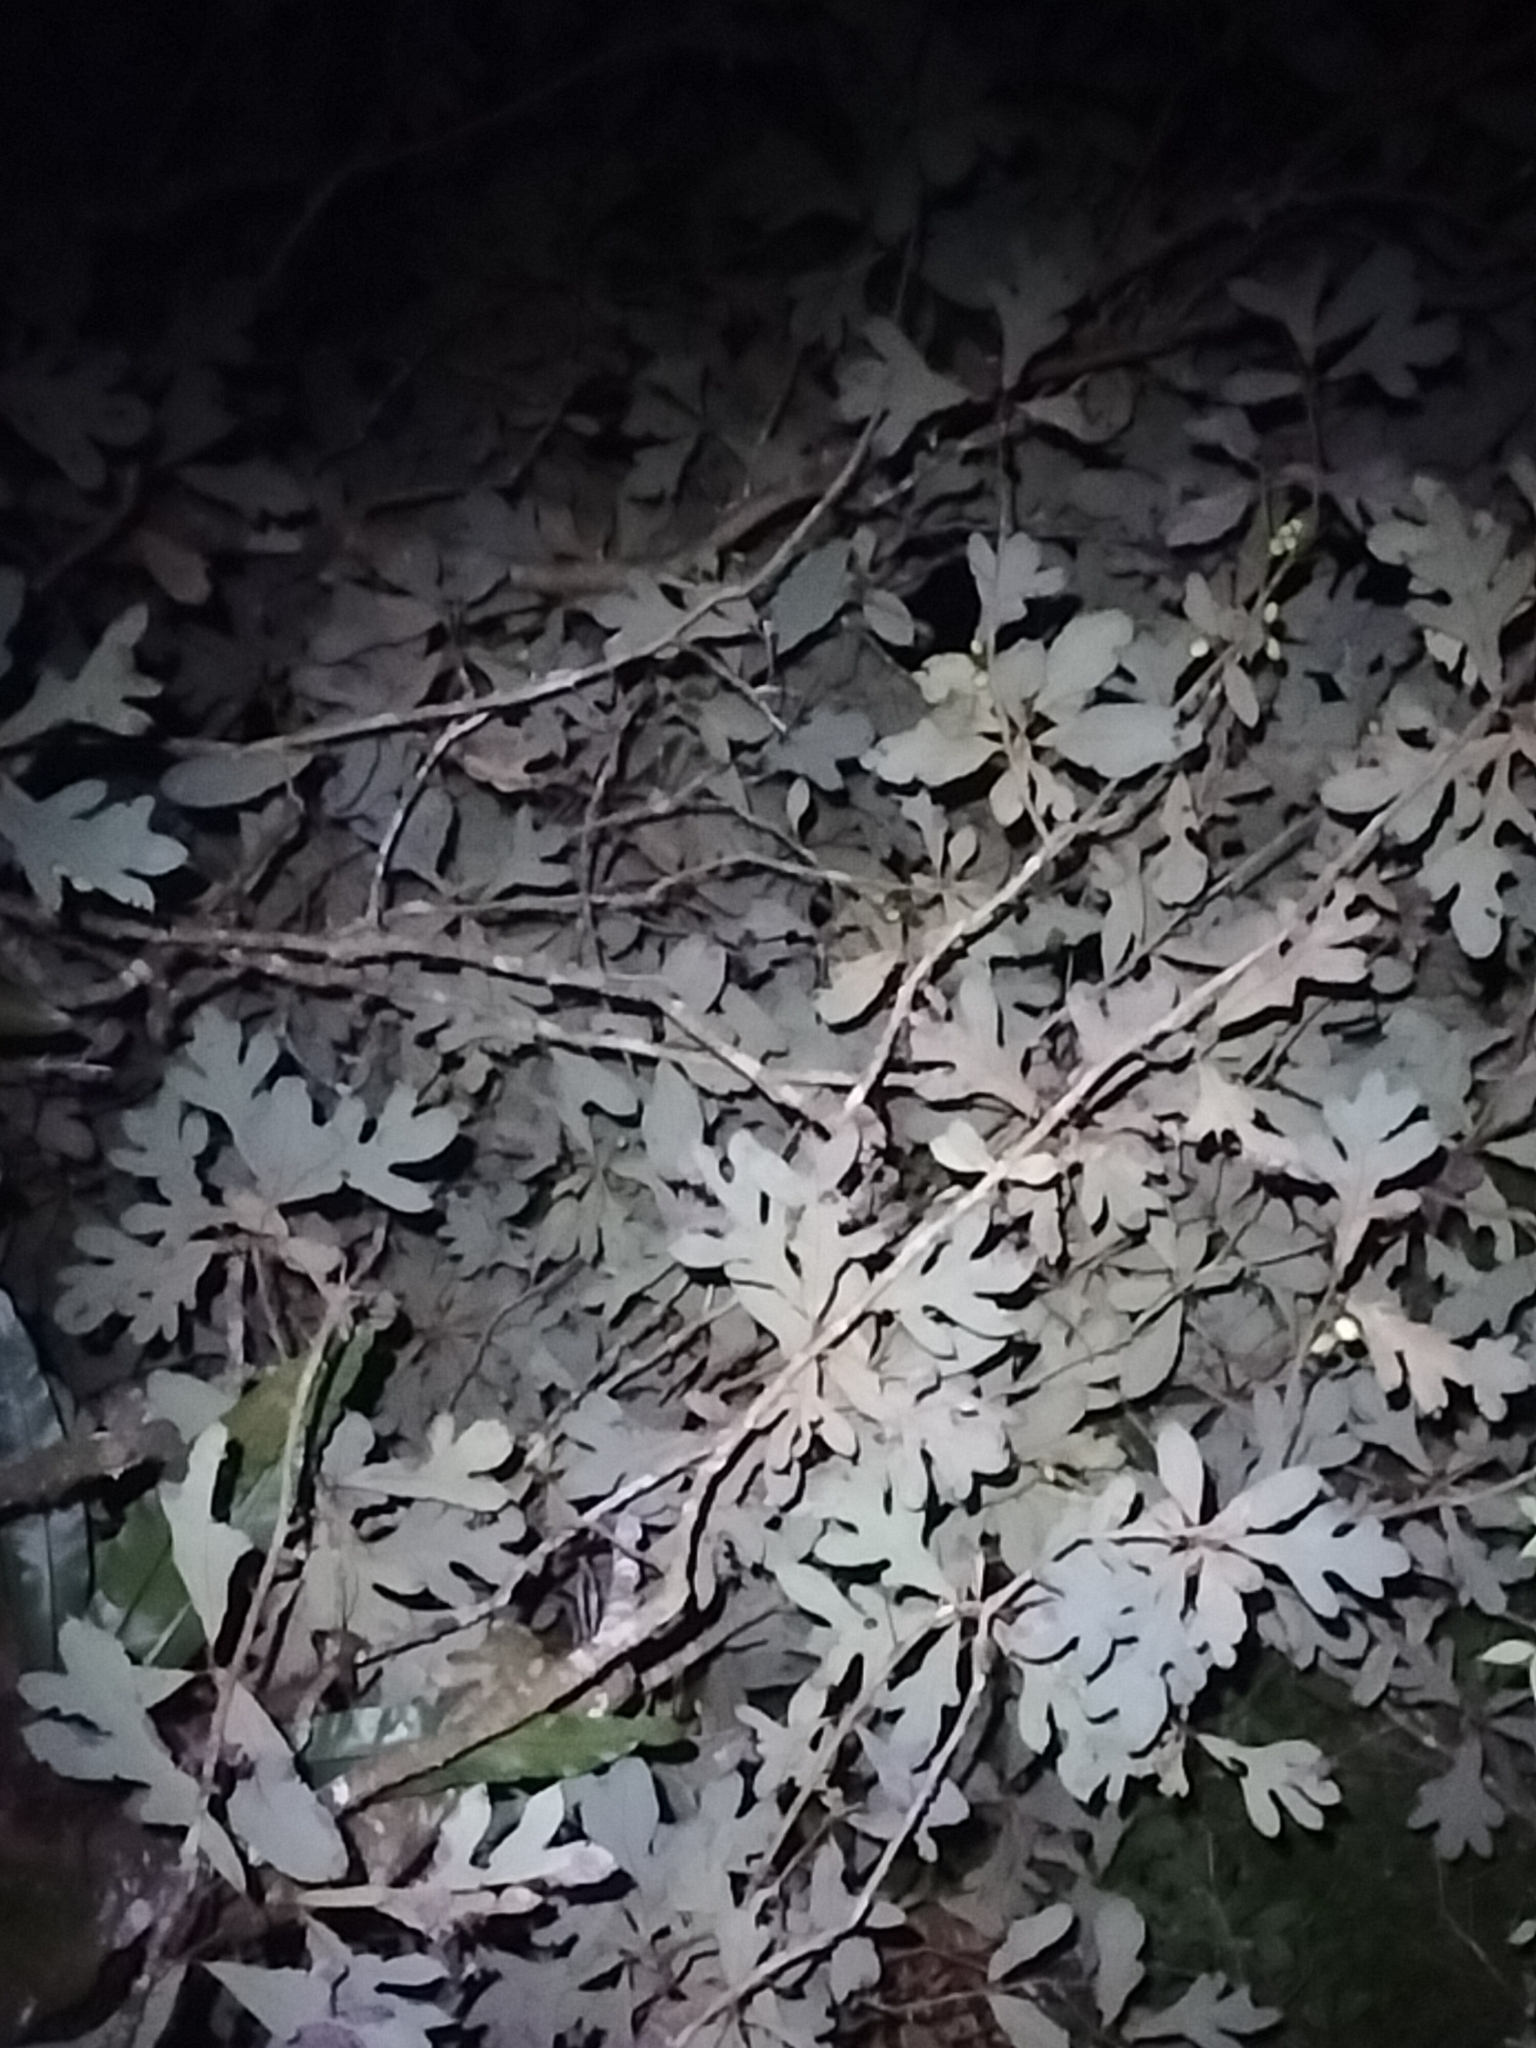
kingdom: Plantae
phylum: Tracheophyta
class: Magnoliopsida
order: Proteales
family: Proteaceae
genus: Athertonia
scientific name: Athertonia diversifolia
